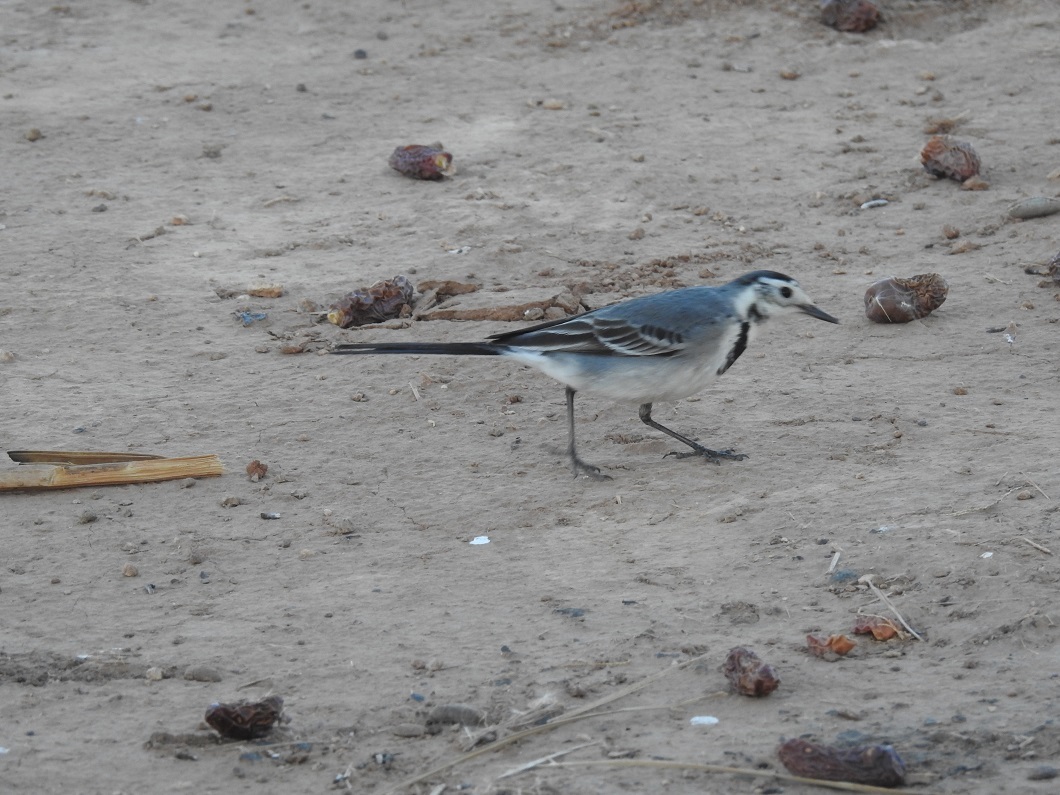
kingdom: Animalia
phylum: Chordata
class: Aves
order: Passeriformes
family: Motacillidae
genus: Motacilla
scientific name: Motacilla alba
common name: White wagtail
